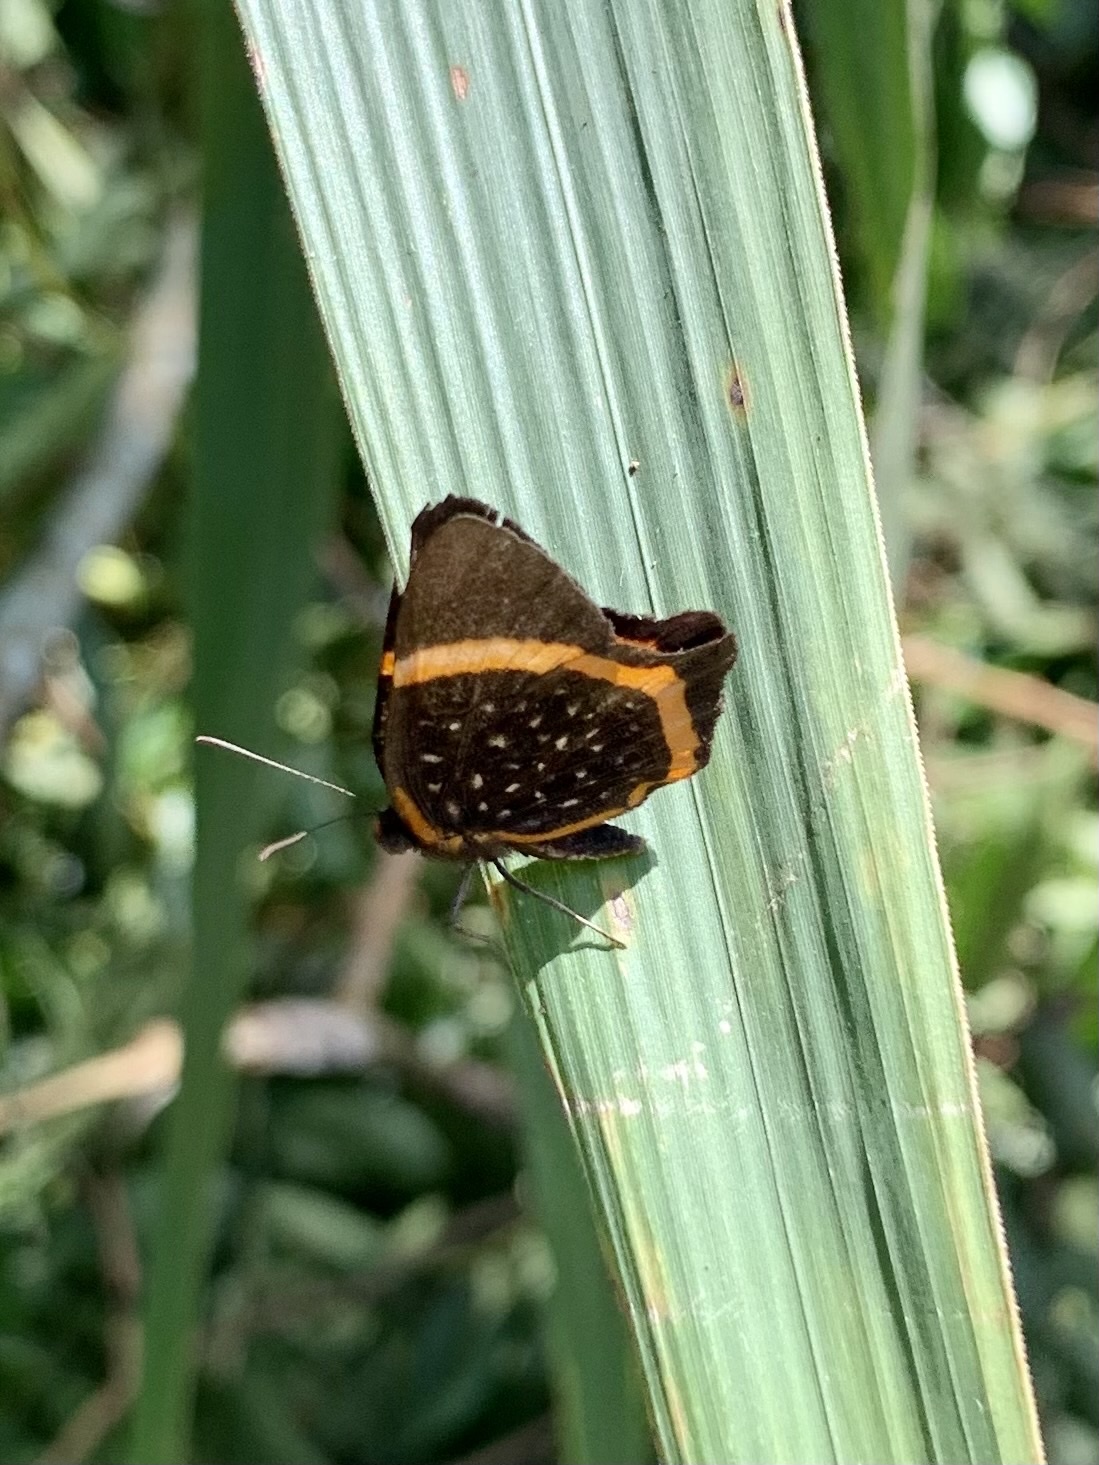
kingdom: Animalia
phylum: Arthropoda
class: Insecta
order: Lepidoptera
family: Riodinidae
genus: Riodina
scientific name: Riodina lysippus
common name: Lysippus metalmark
